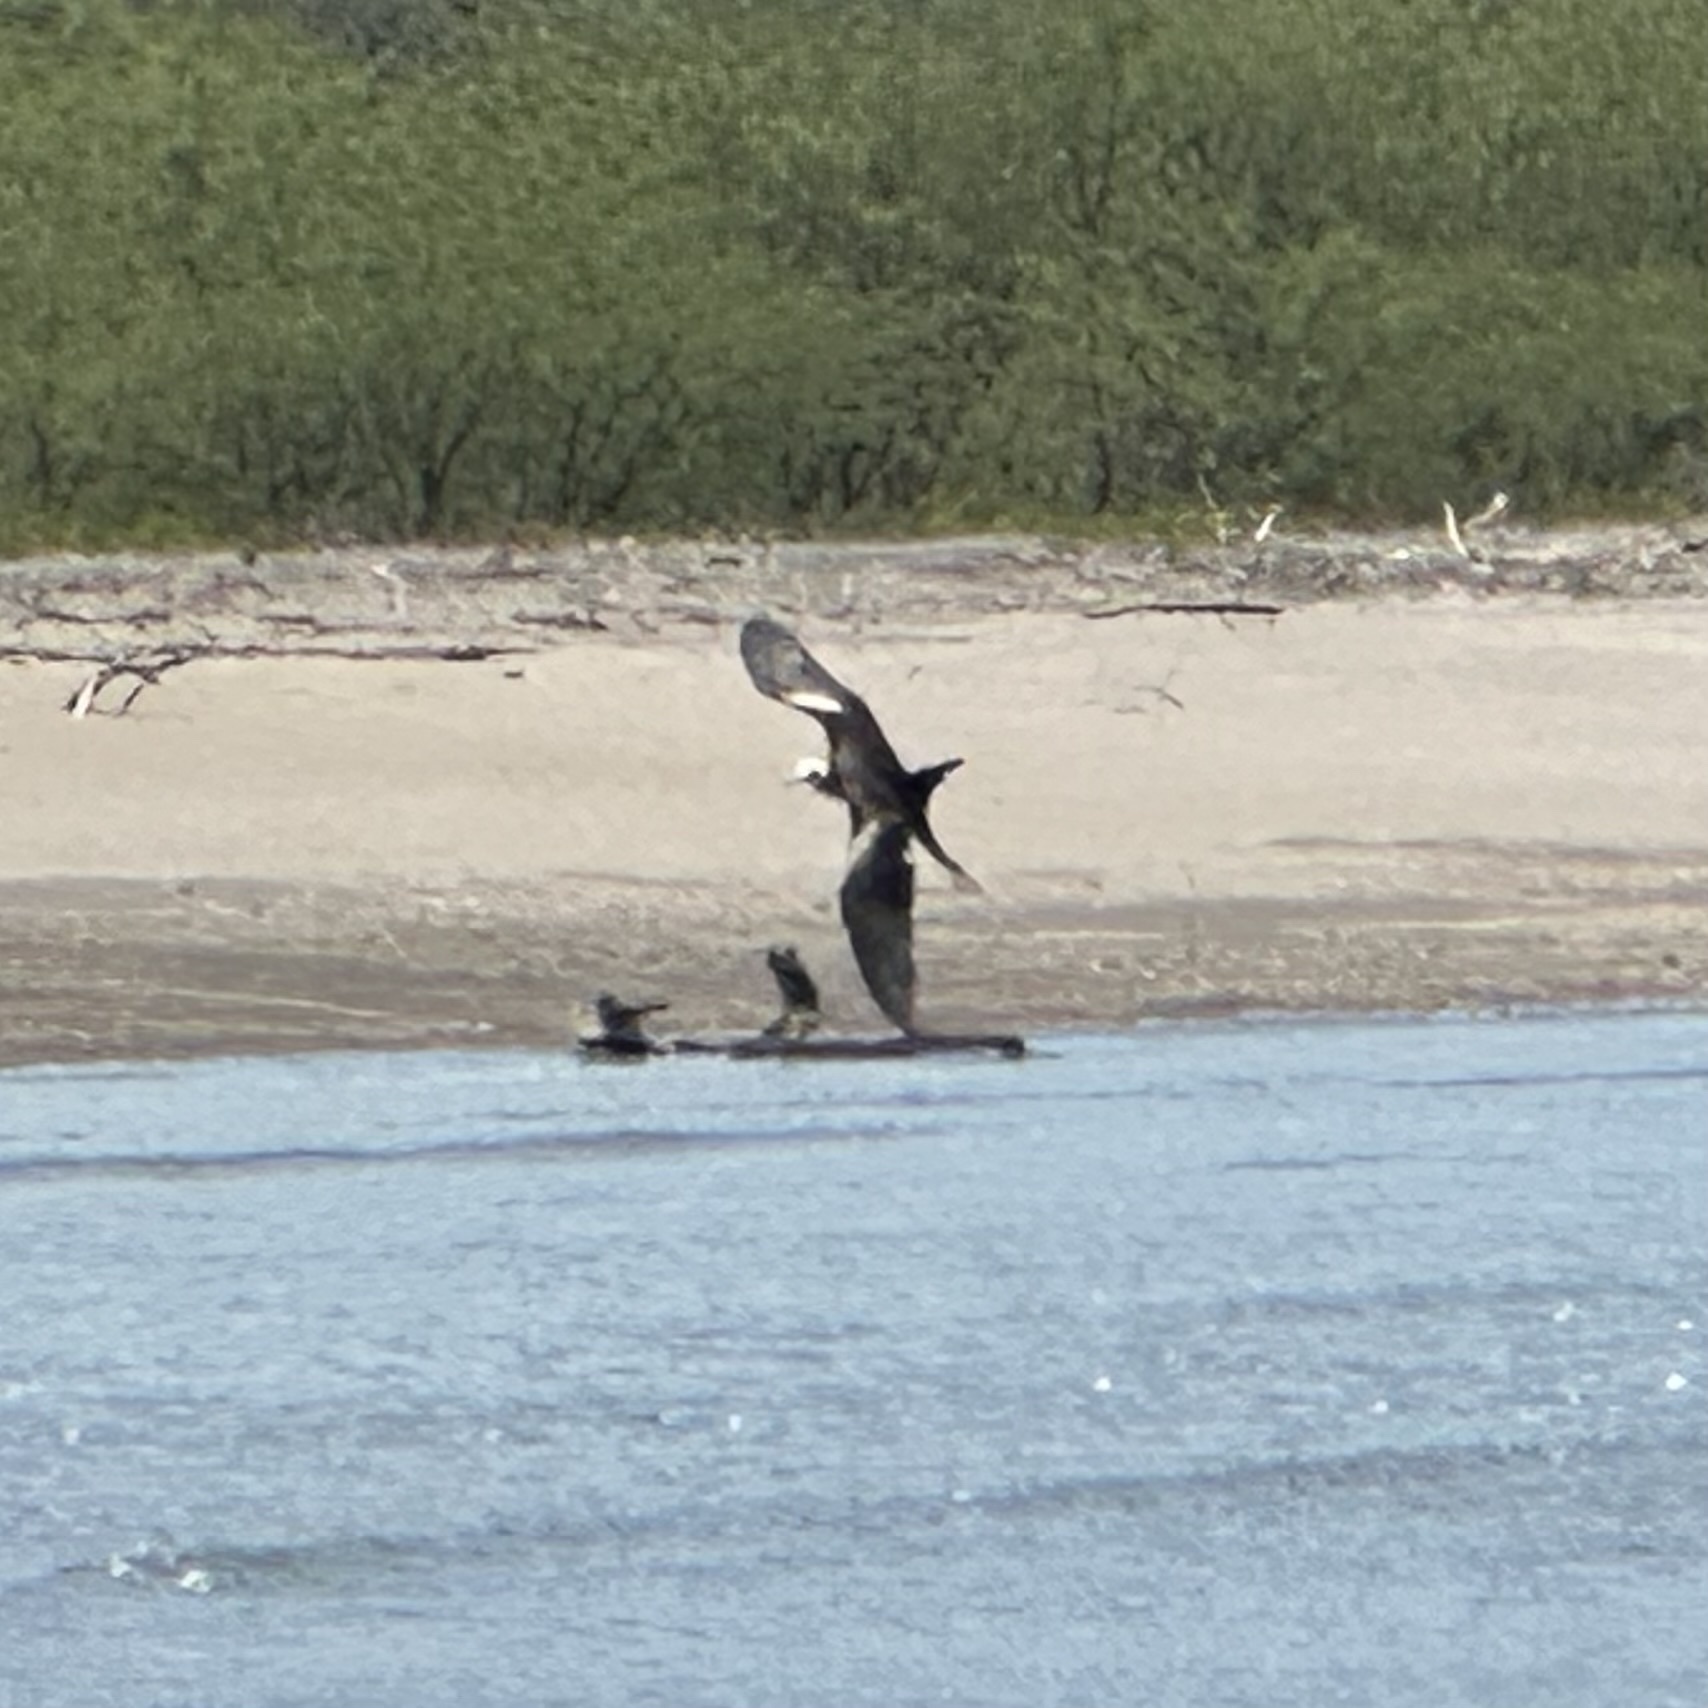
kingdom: Animalia
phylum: Chordata
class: Aves
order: Suliformes
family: Fregatidae
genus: Fregata
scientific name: Fregata magnificens
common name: Magnificent frigatebird
